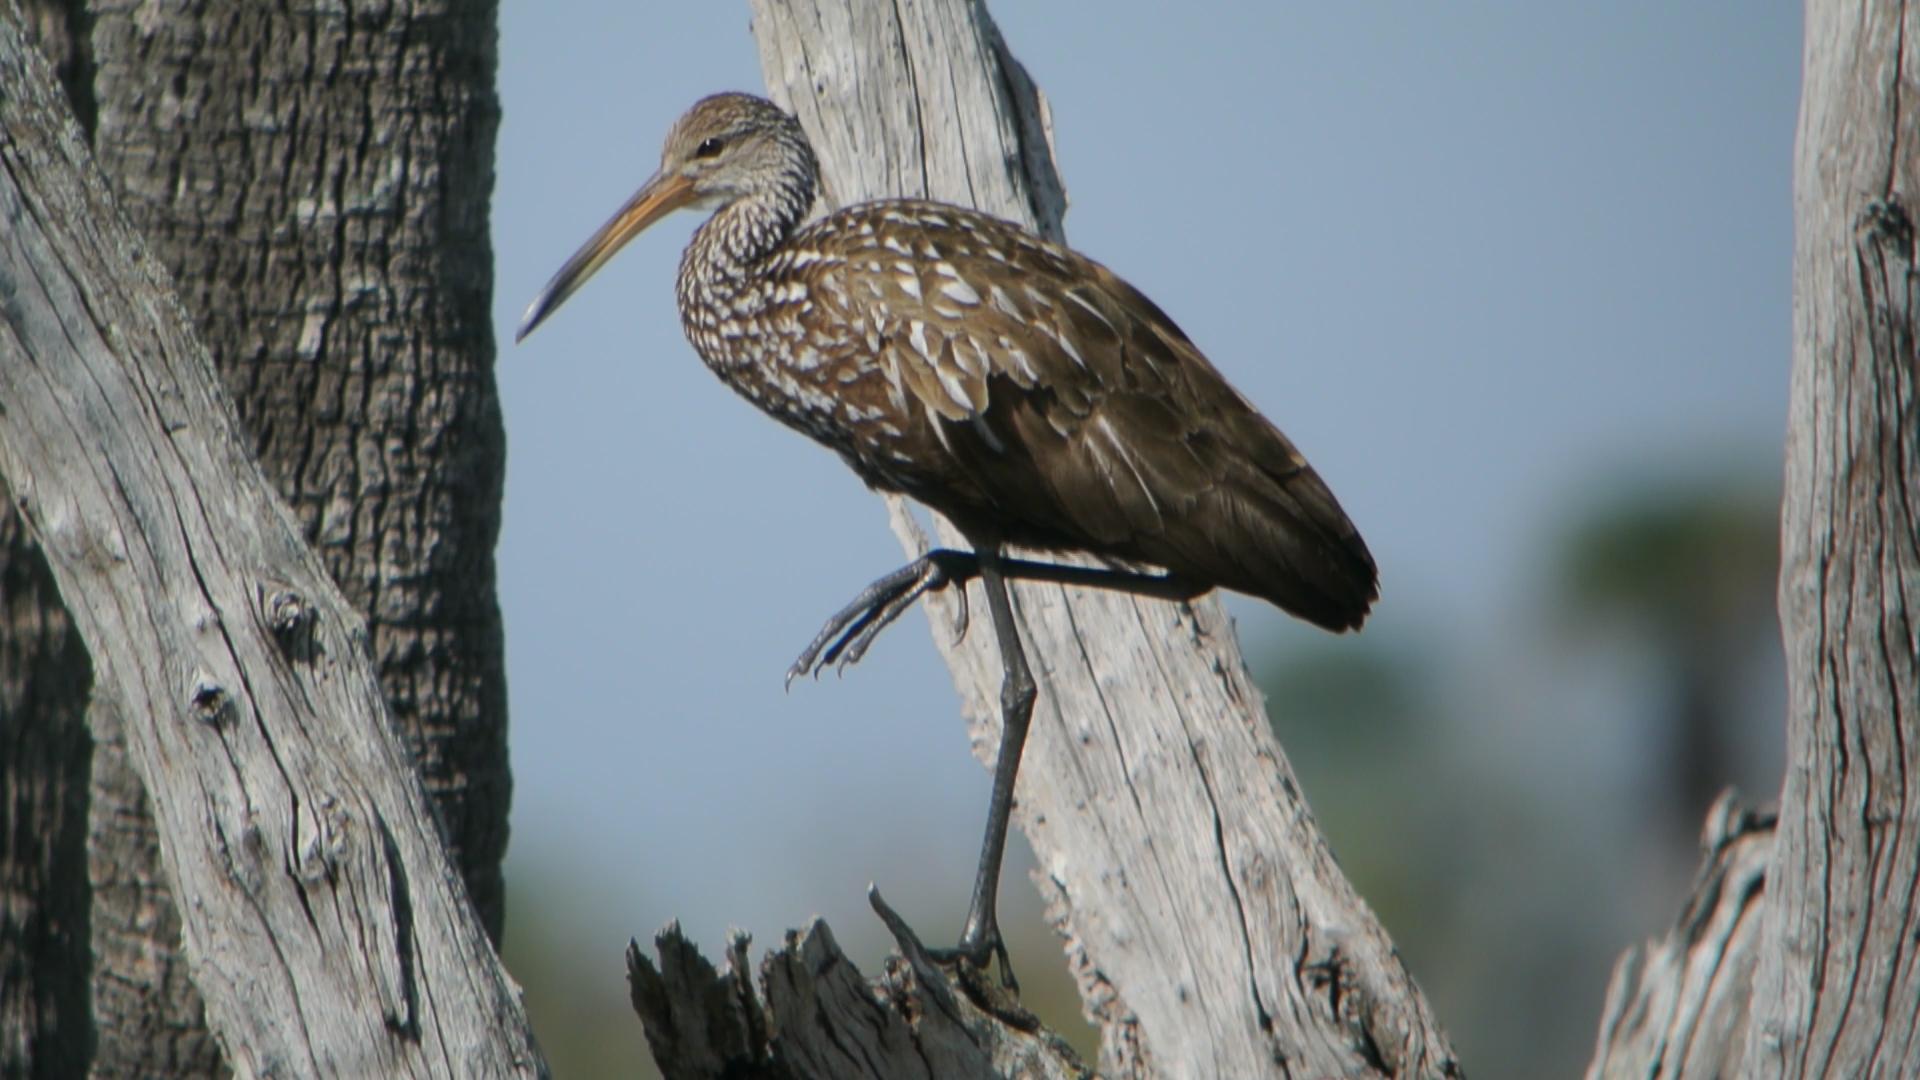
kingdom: Animalia
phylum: Chordata
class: Aves
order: Gruiformes
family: Aramidae
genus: Aramus
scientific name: Aramus guarauna
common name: Limpkin
